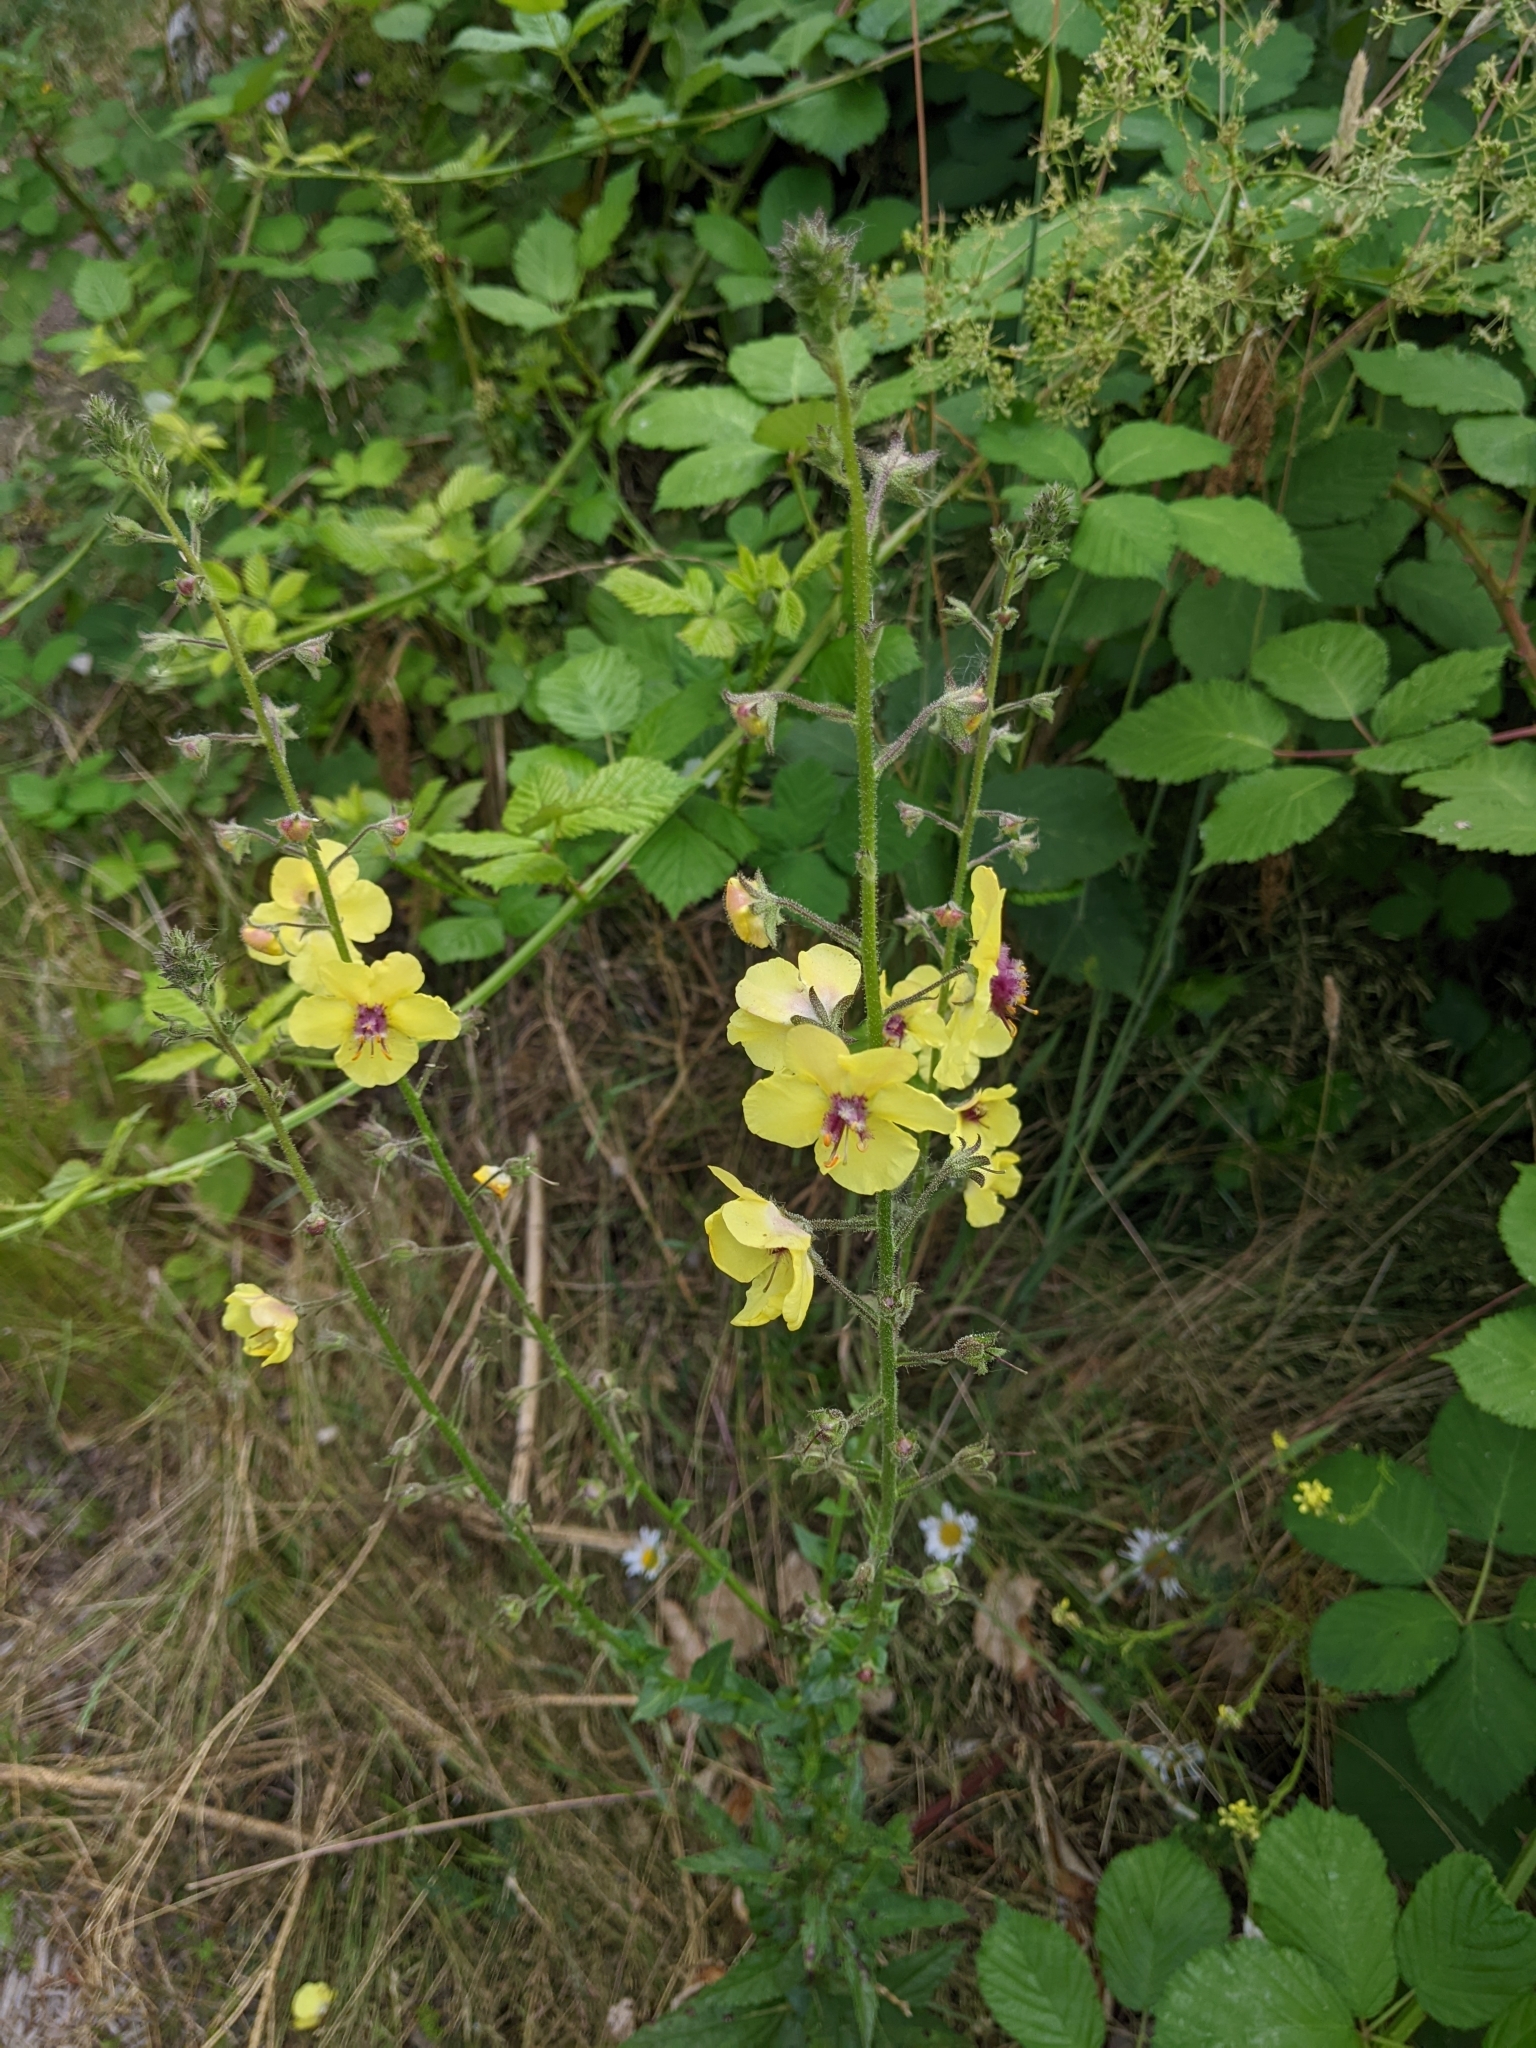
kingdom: Plantae
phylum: Tracheophyta
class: Magnoliopsida
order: Lamiales
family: Scrophulariaceae
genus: Verbascum
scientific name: Verbascum blattaria
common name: Moth mullein
